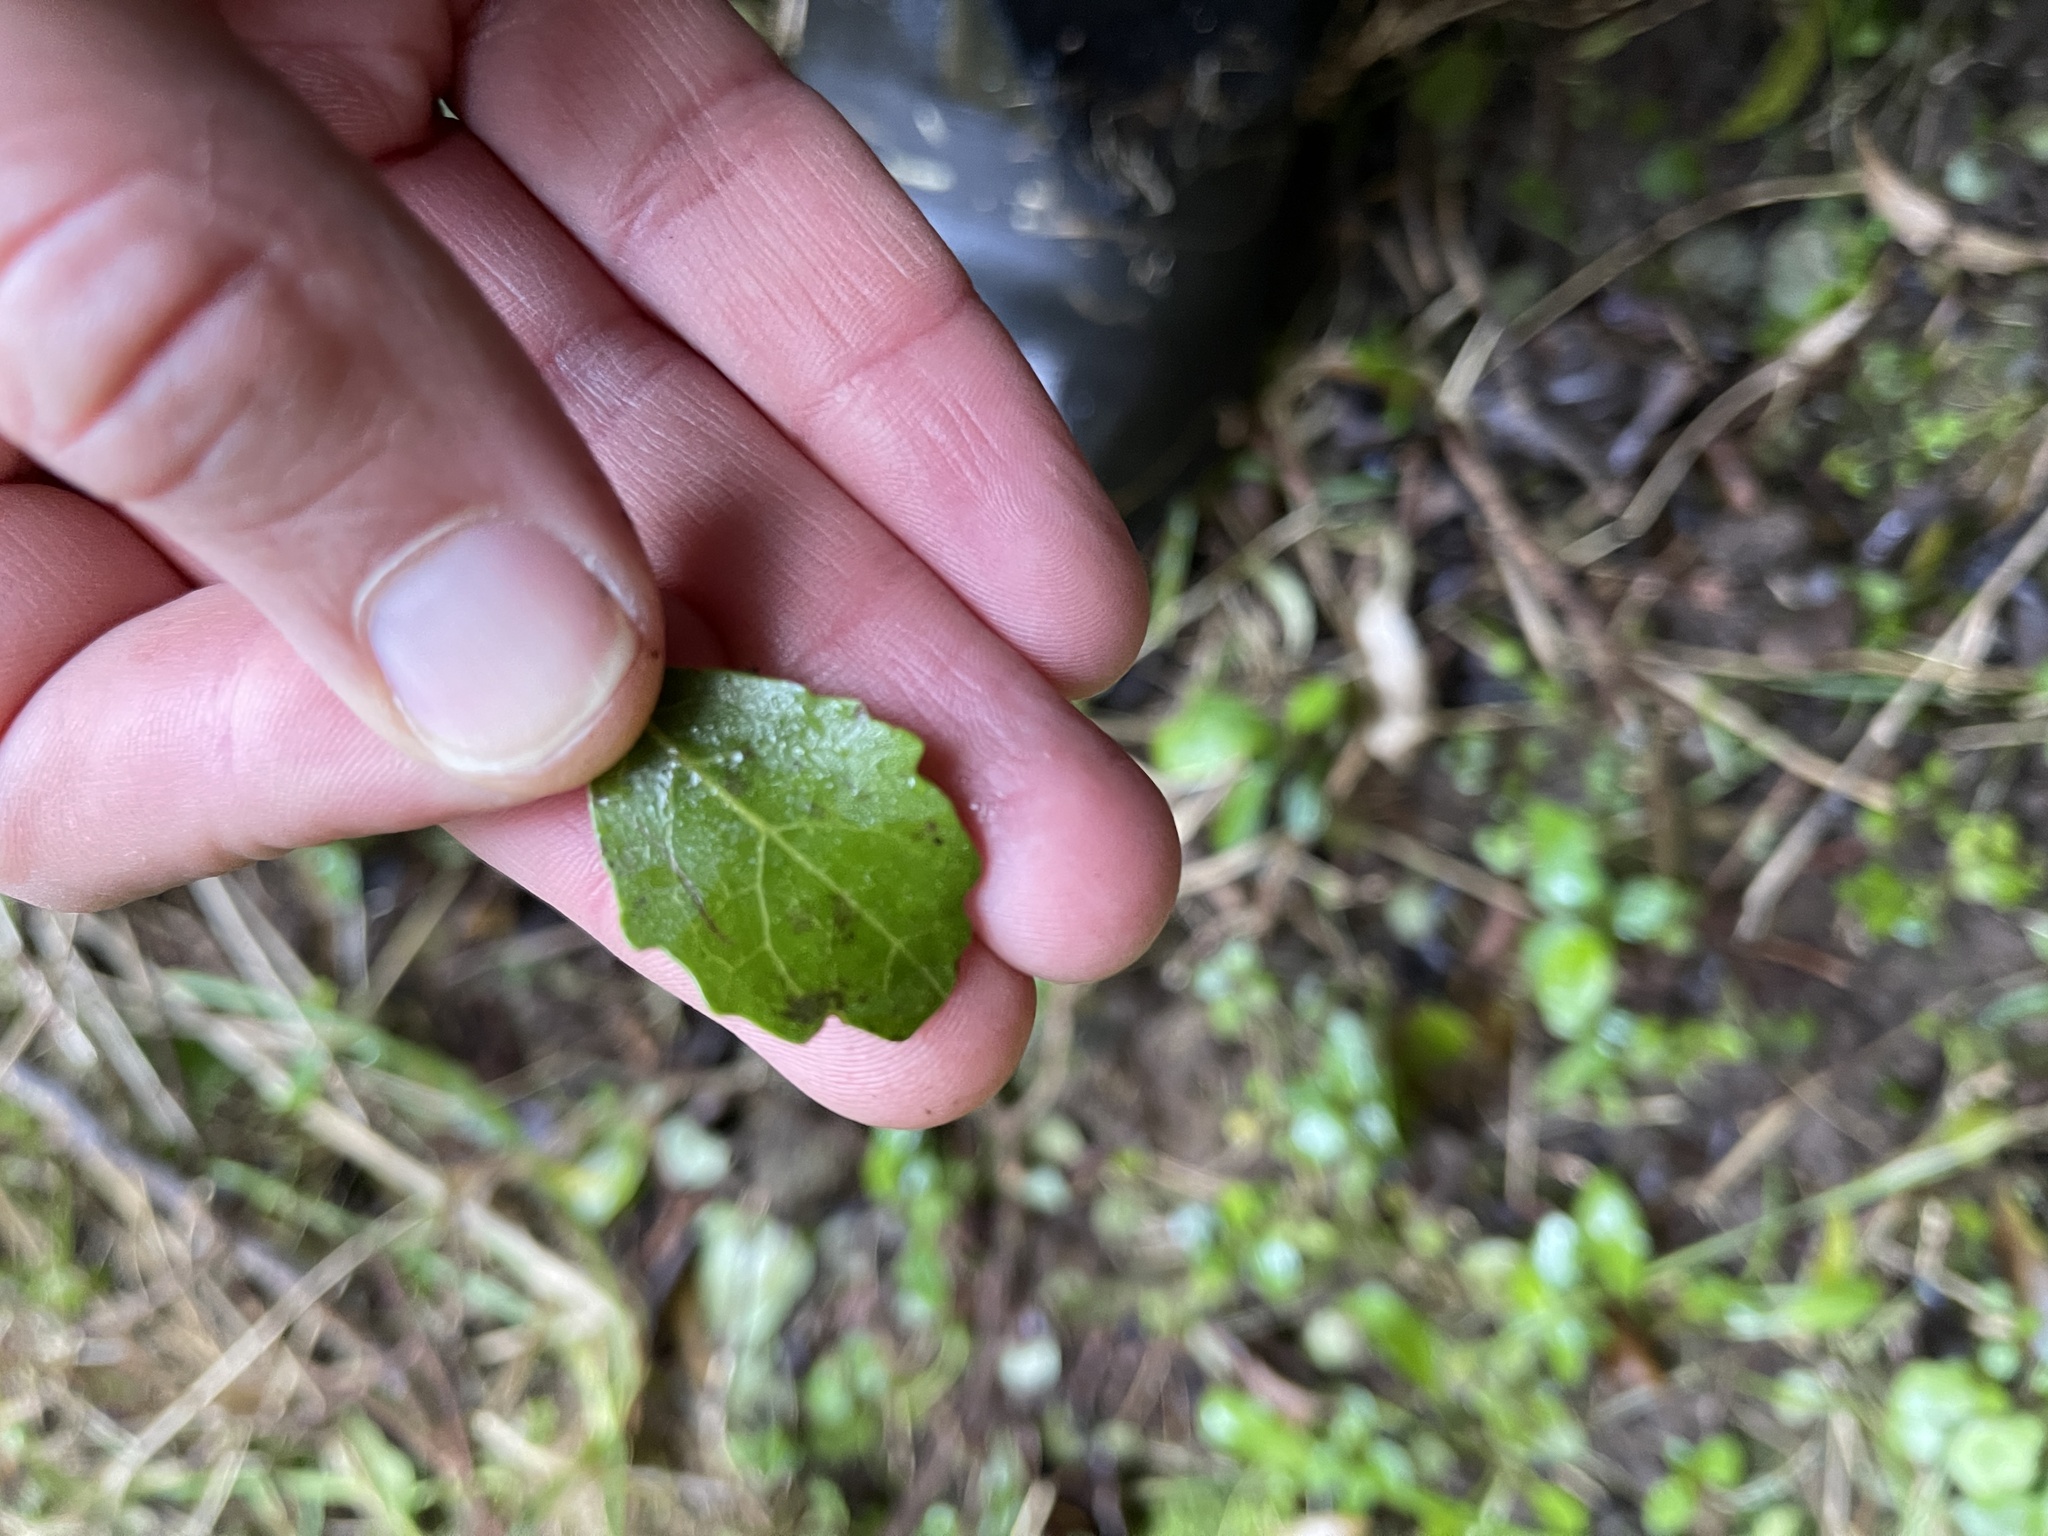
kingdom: Plantae
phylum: Tracheophyta
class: Magnoliopsida
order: Apiales
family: Pennantiaceae
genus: Pennantia
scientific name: Pennantia corymbosa
